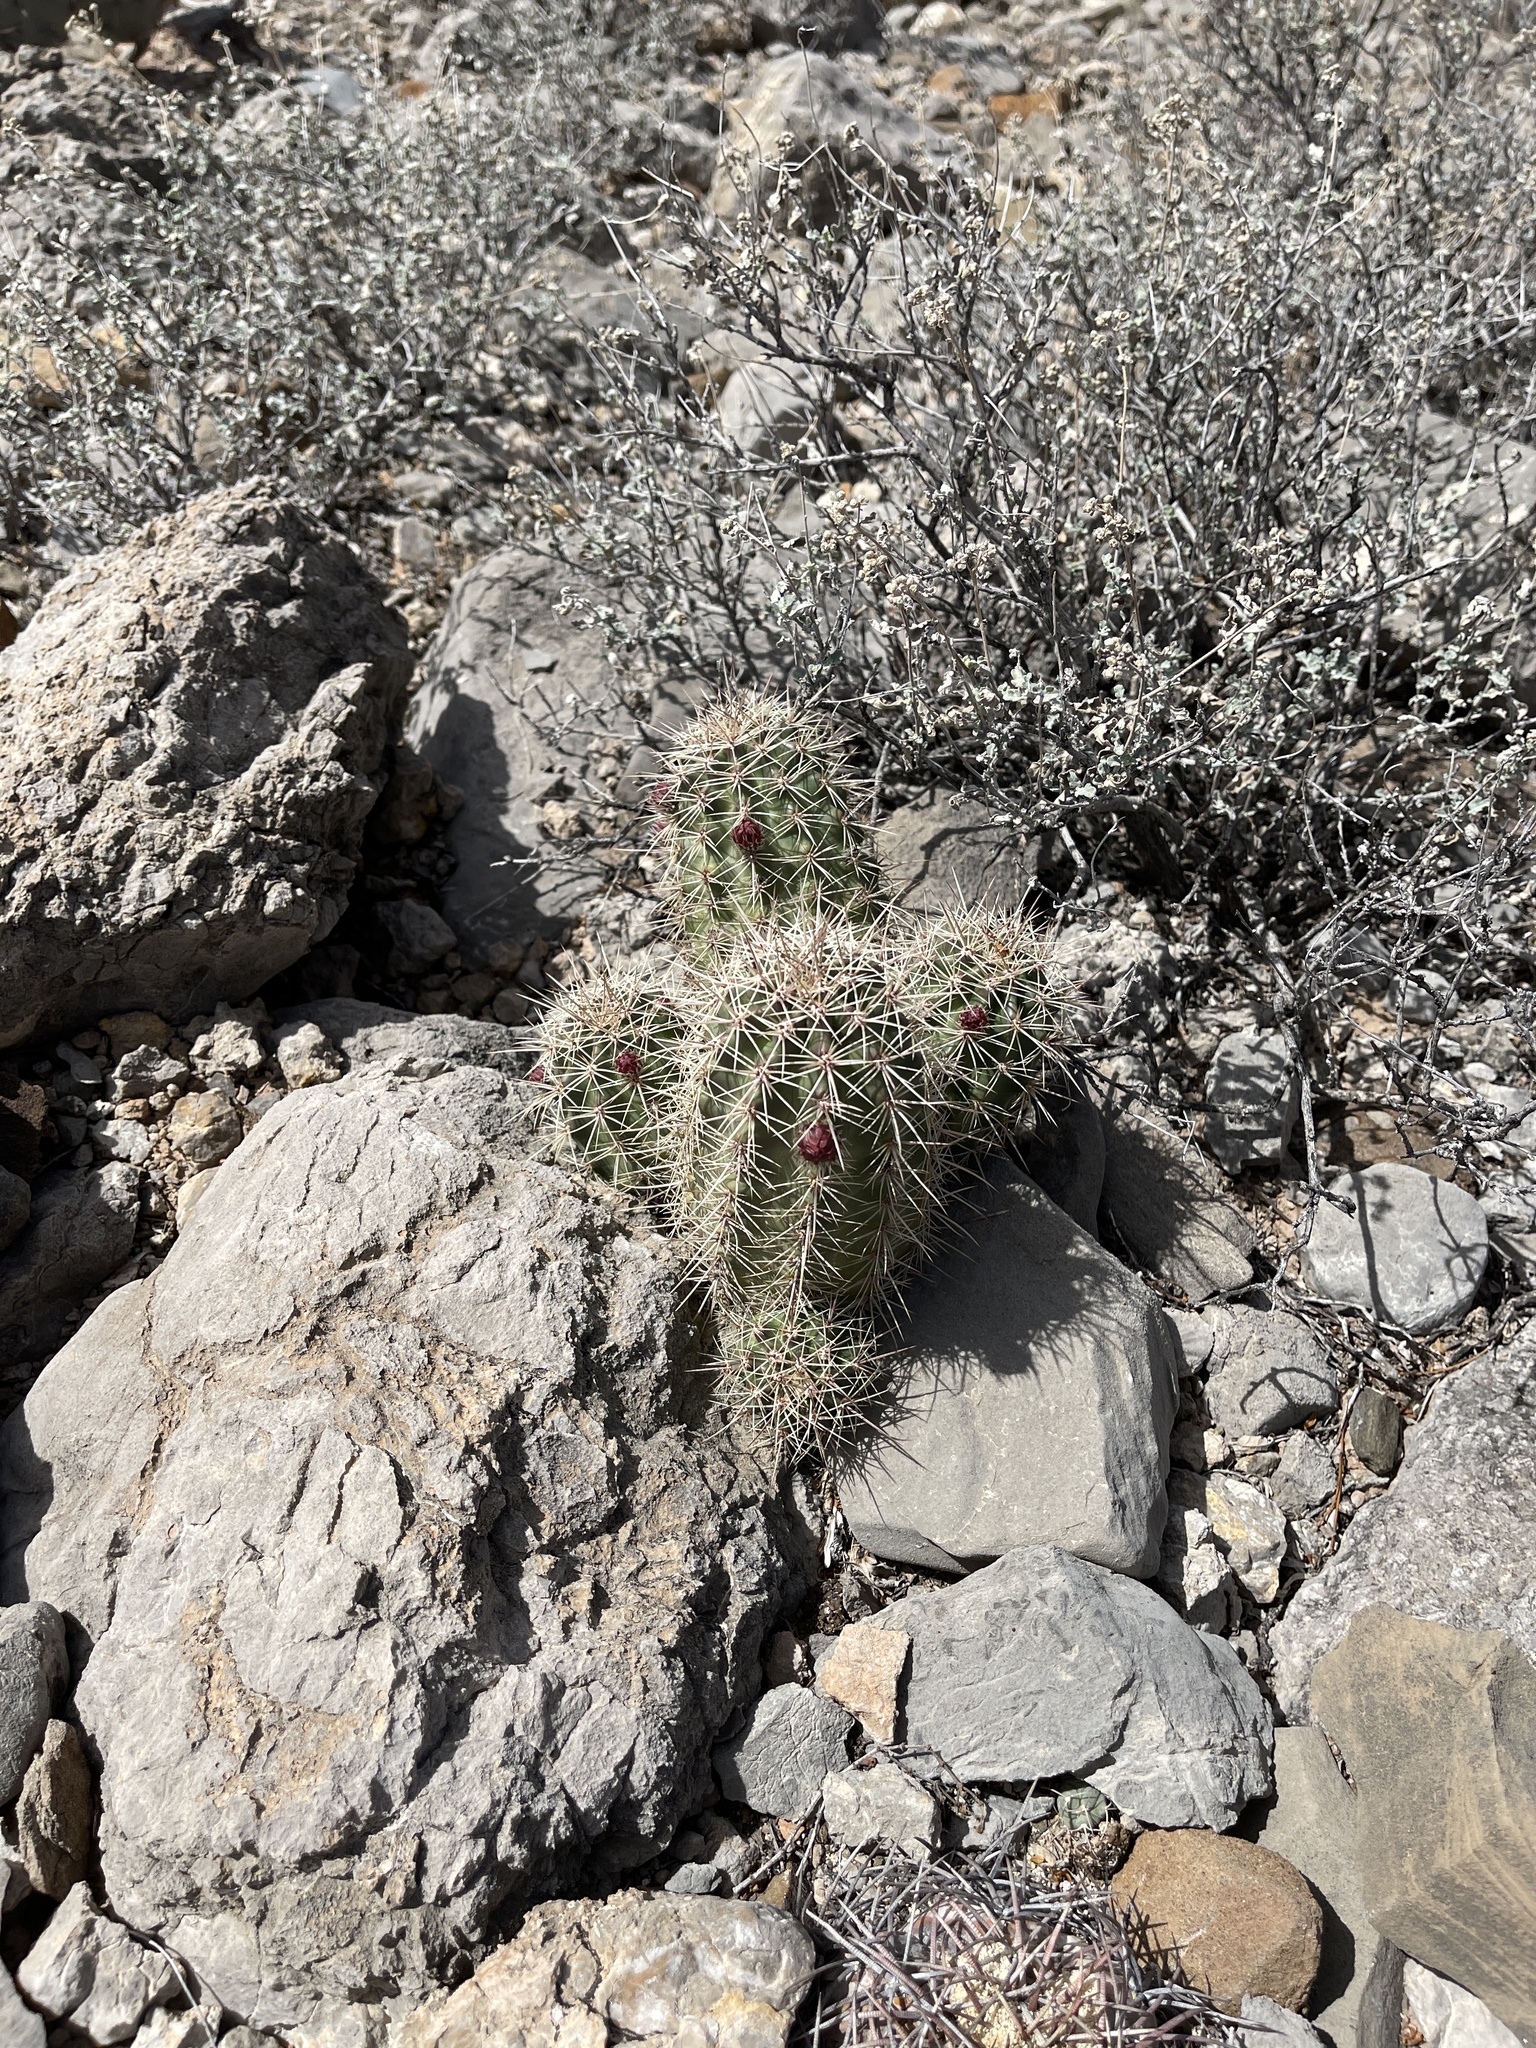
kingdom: Plantae
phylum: Tracheophyta
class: Magnoliopsida
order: Caryophyllales
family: Cactaceae
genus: Echinocereus
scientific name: Echinocereus coccineus
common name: Scarlet hedgehog cactus
